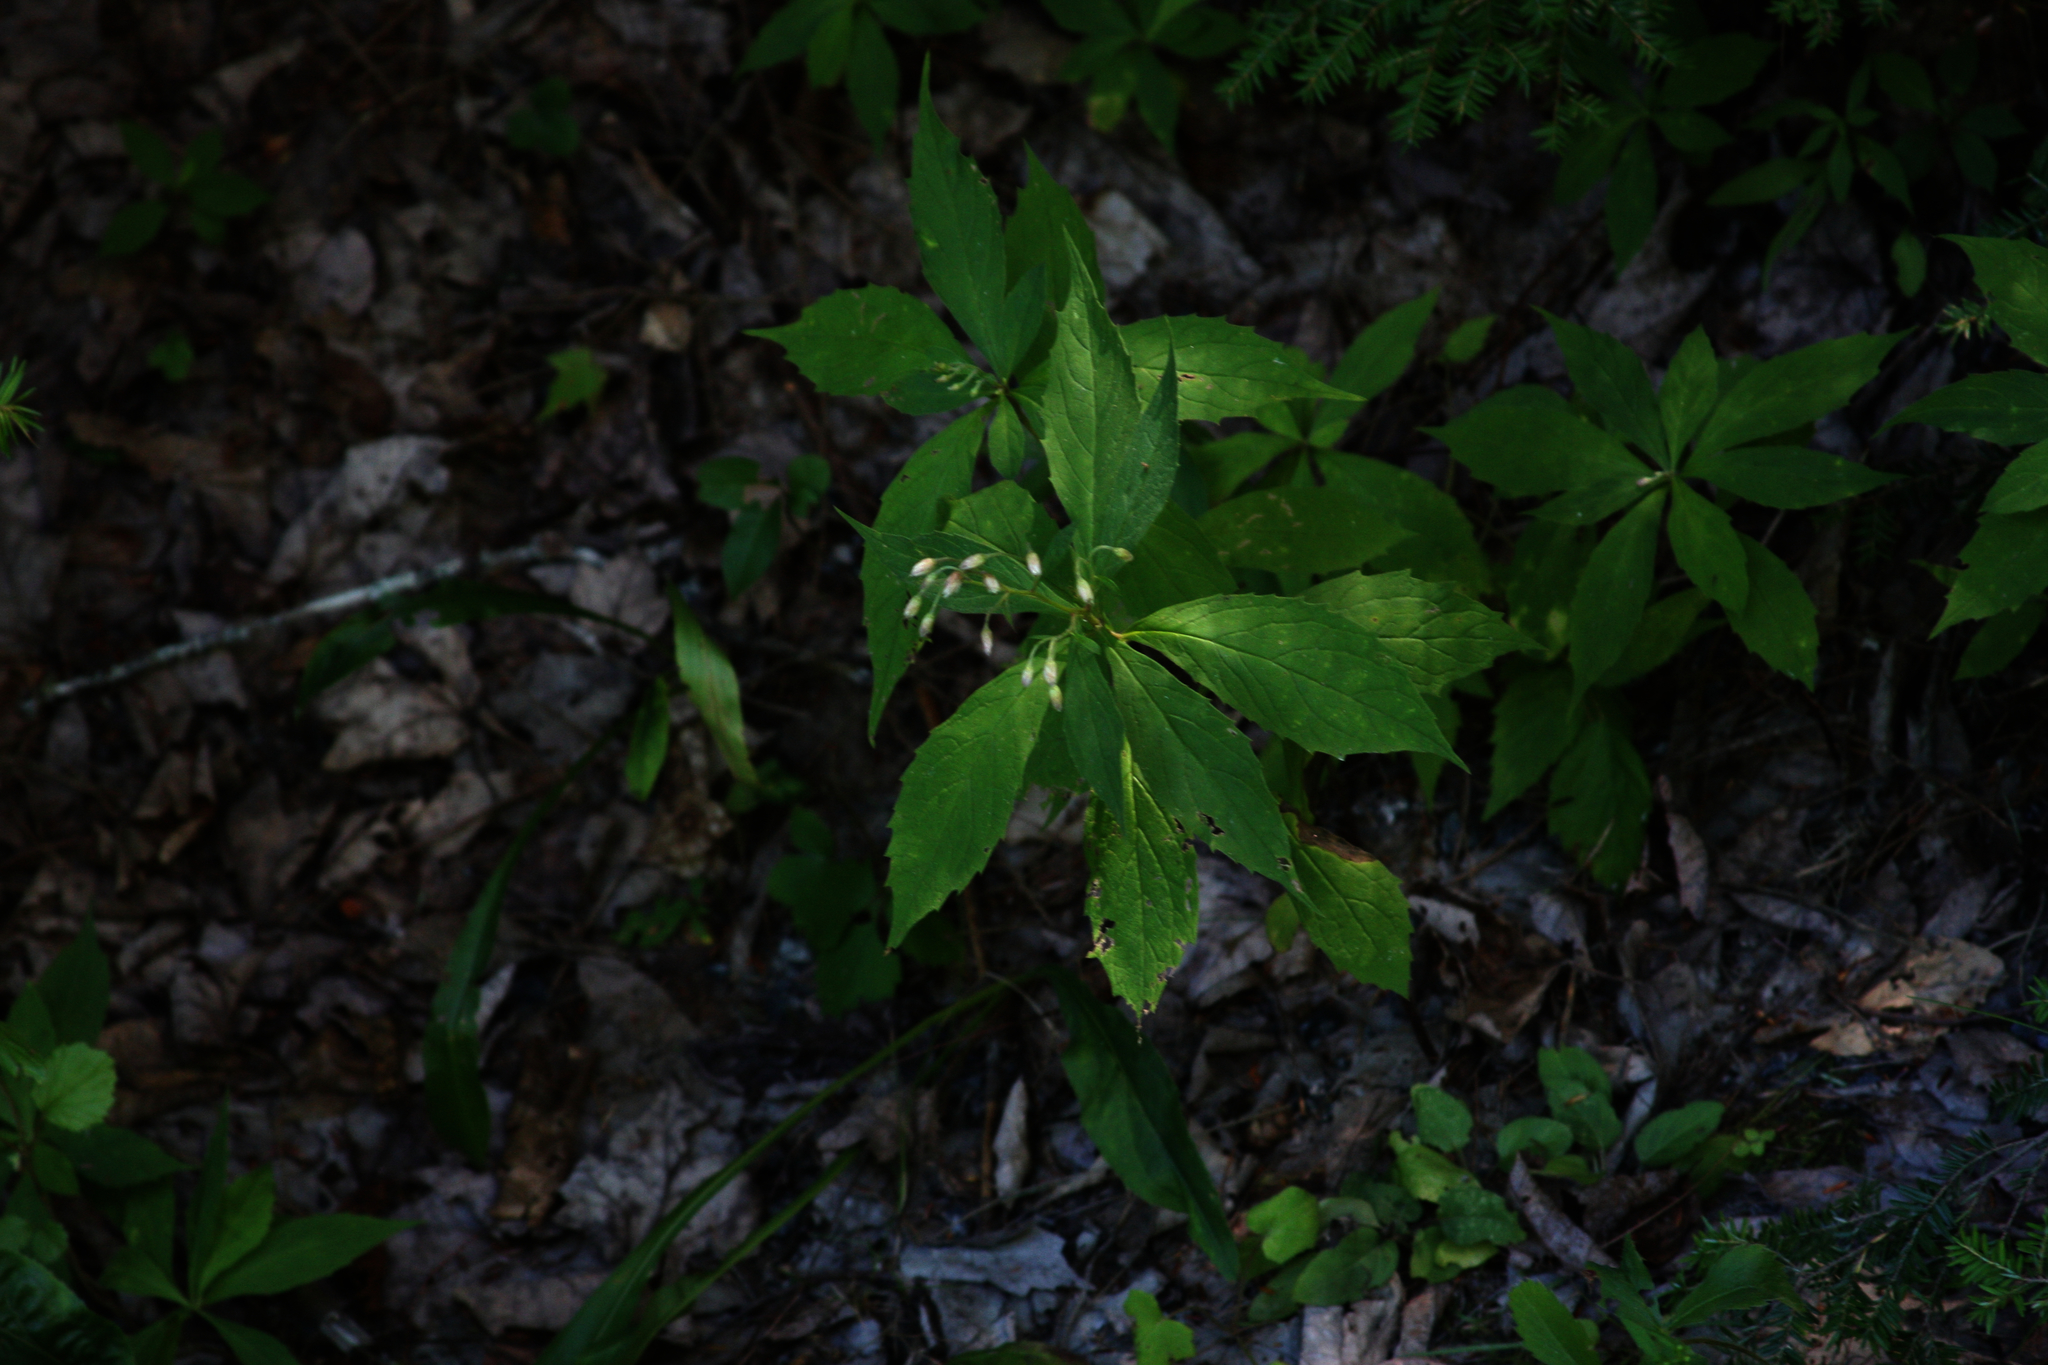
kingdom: Plantae
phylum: Tracheophyta
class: Magnoliopsida
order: Asterales
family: Asteraceae
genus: Oclemena
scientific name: Oclemena acuminata
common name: Mountain aster
